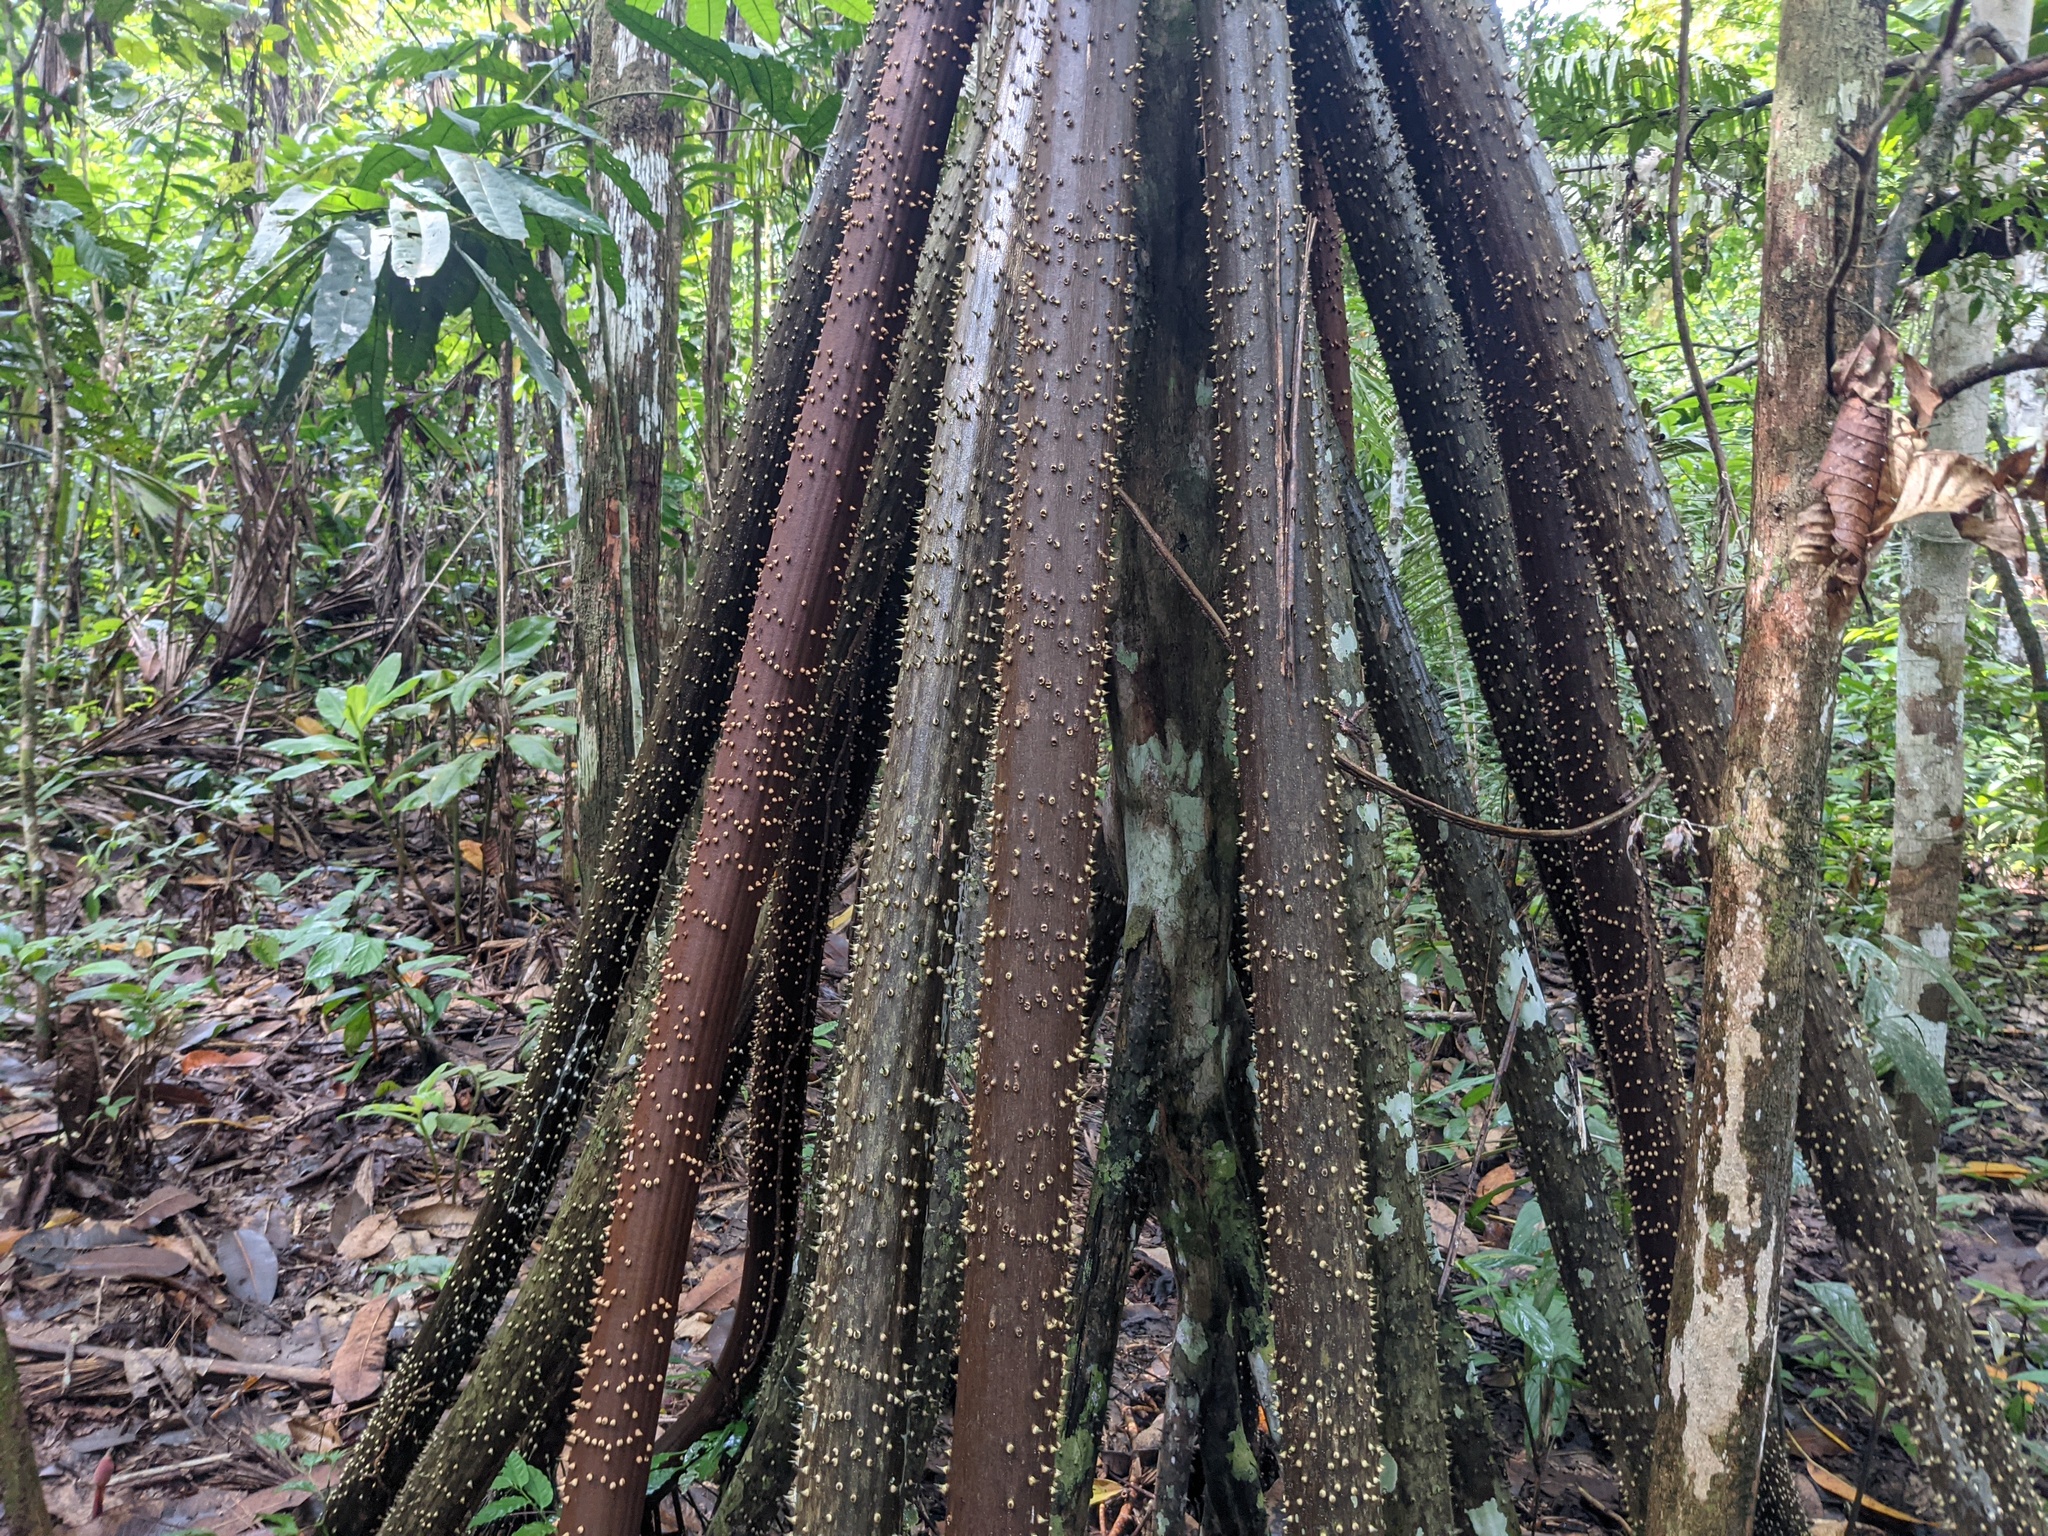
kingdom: Plantae
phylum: Tracheophyta
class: Liliopsida
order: Arecales
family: Arecaceae
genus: Socratea
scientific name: Socratea exorrhiza
